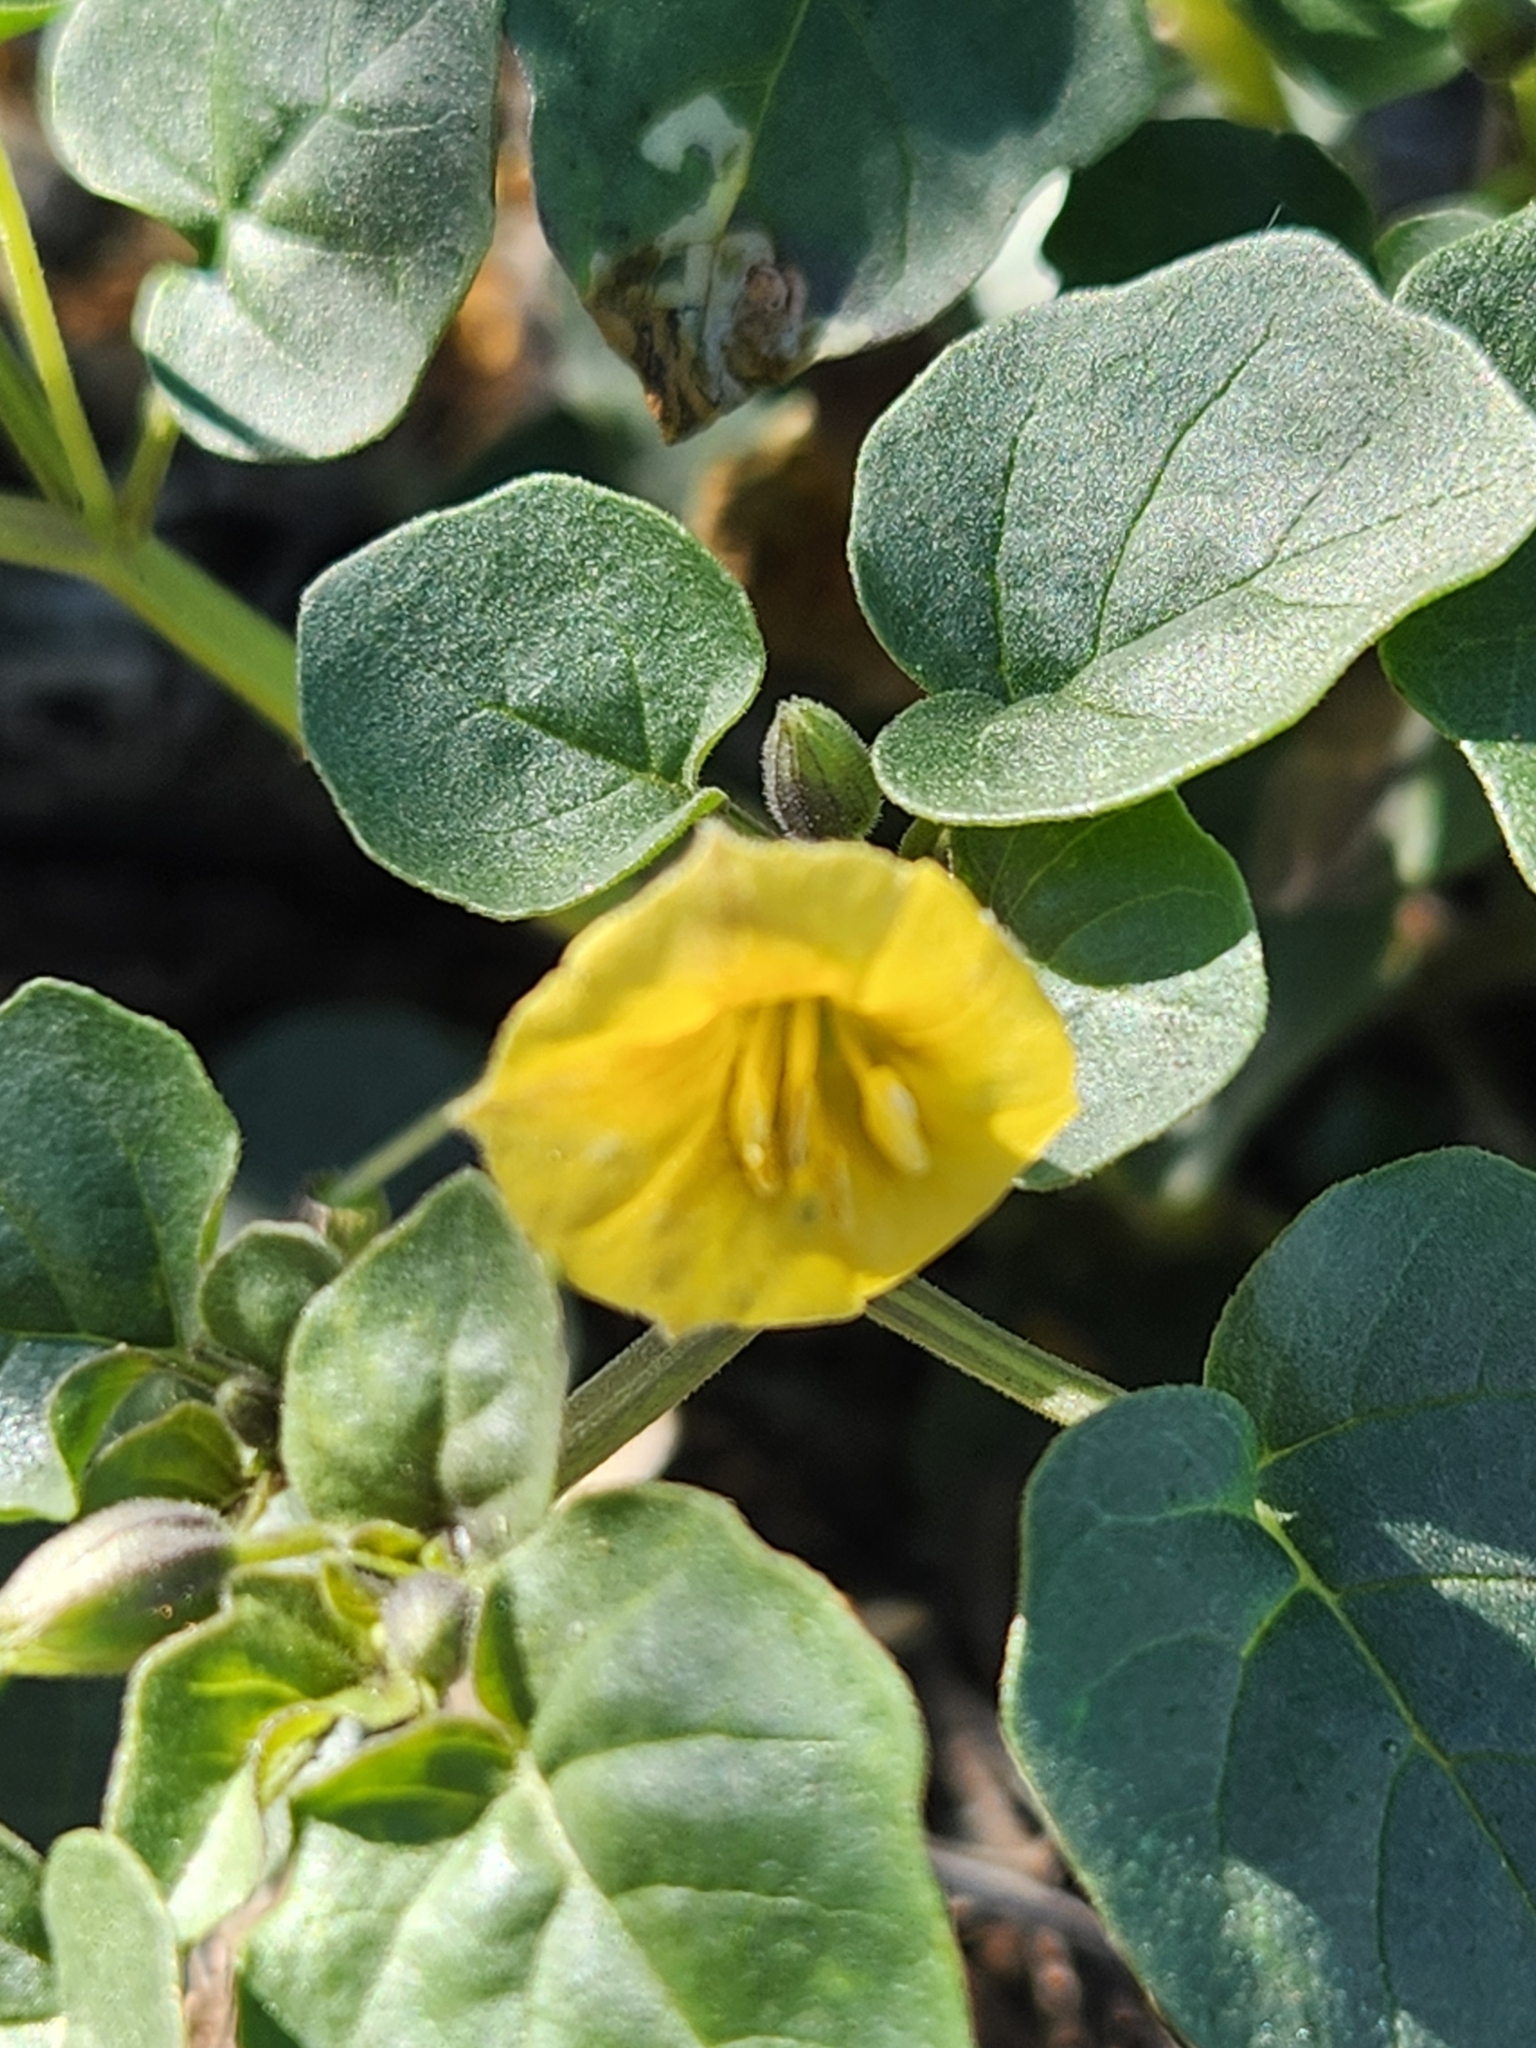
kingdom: Plantae
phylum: Tracheophyta
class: Magnoliopsida
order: Solanales
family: Solanaceae
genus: Physalis
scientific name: Physalis crassifolia
